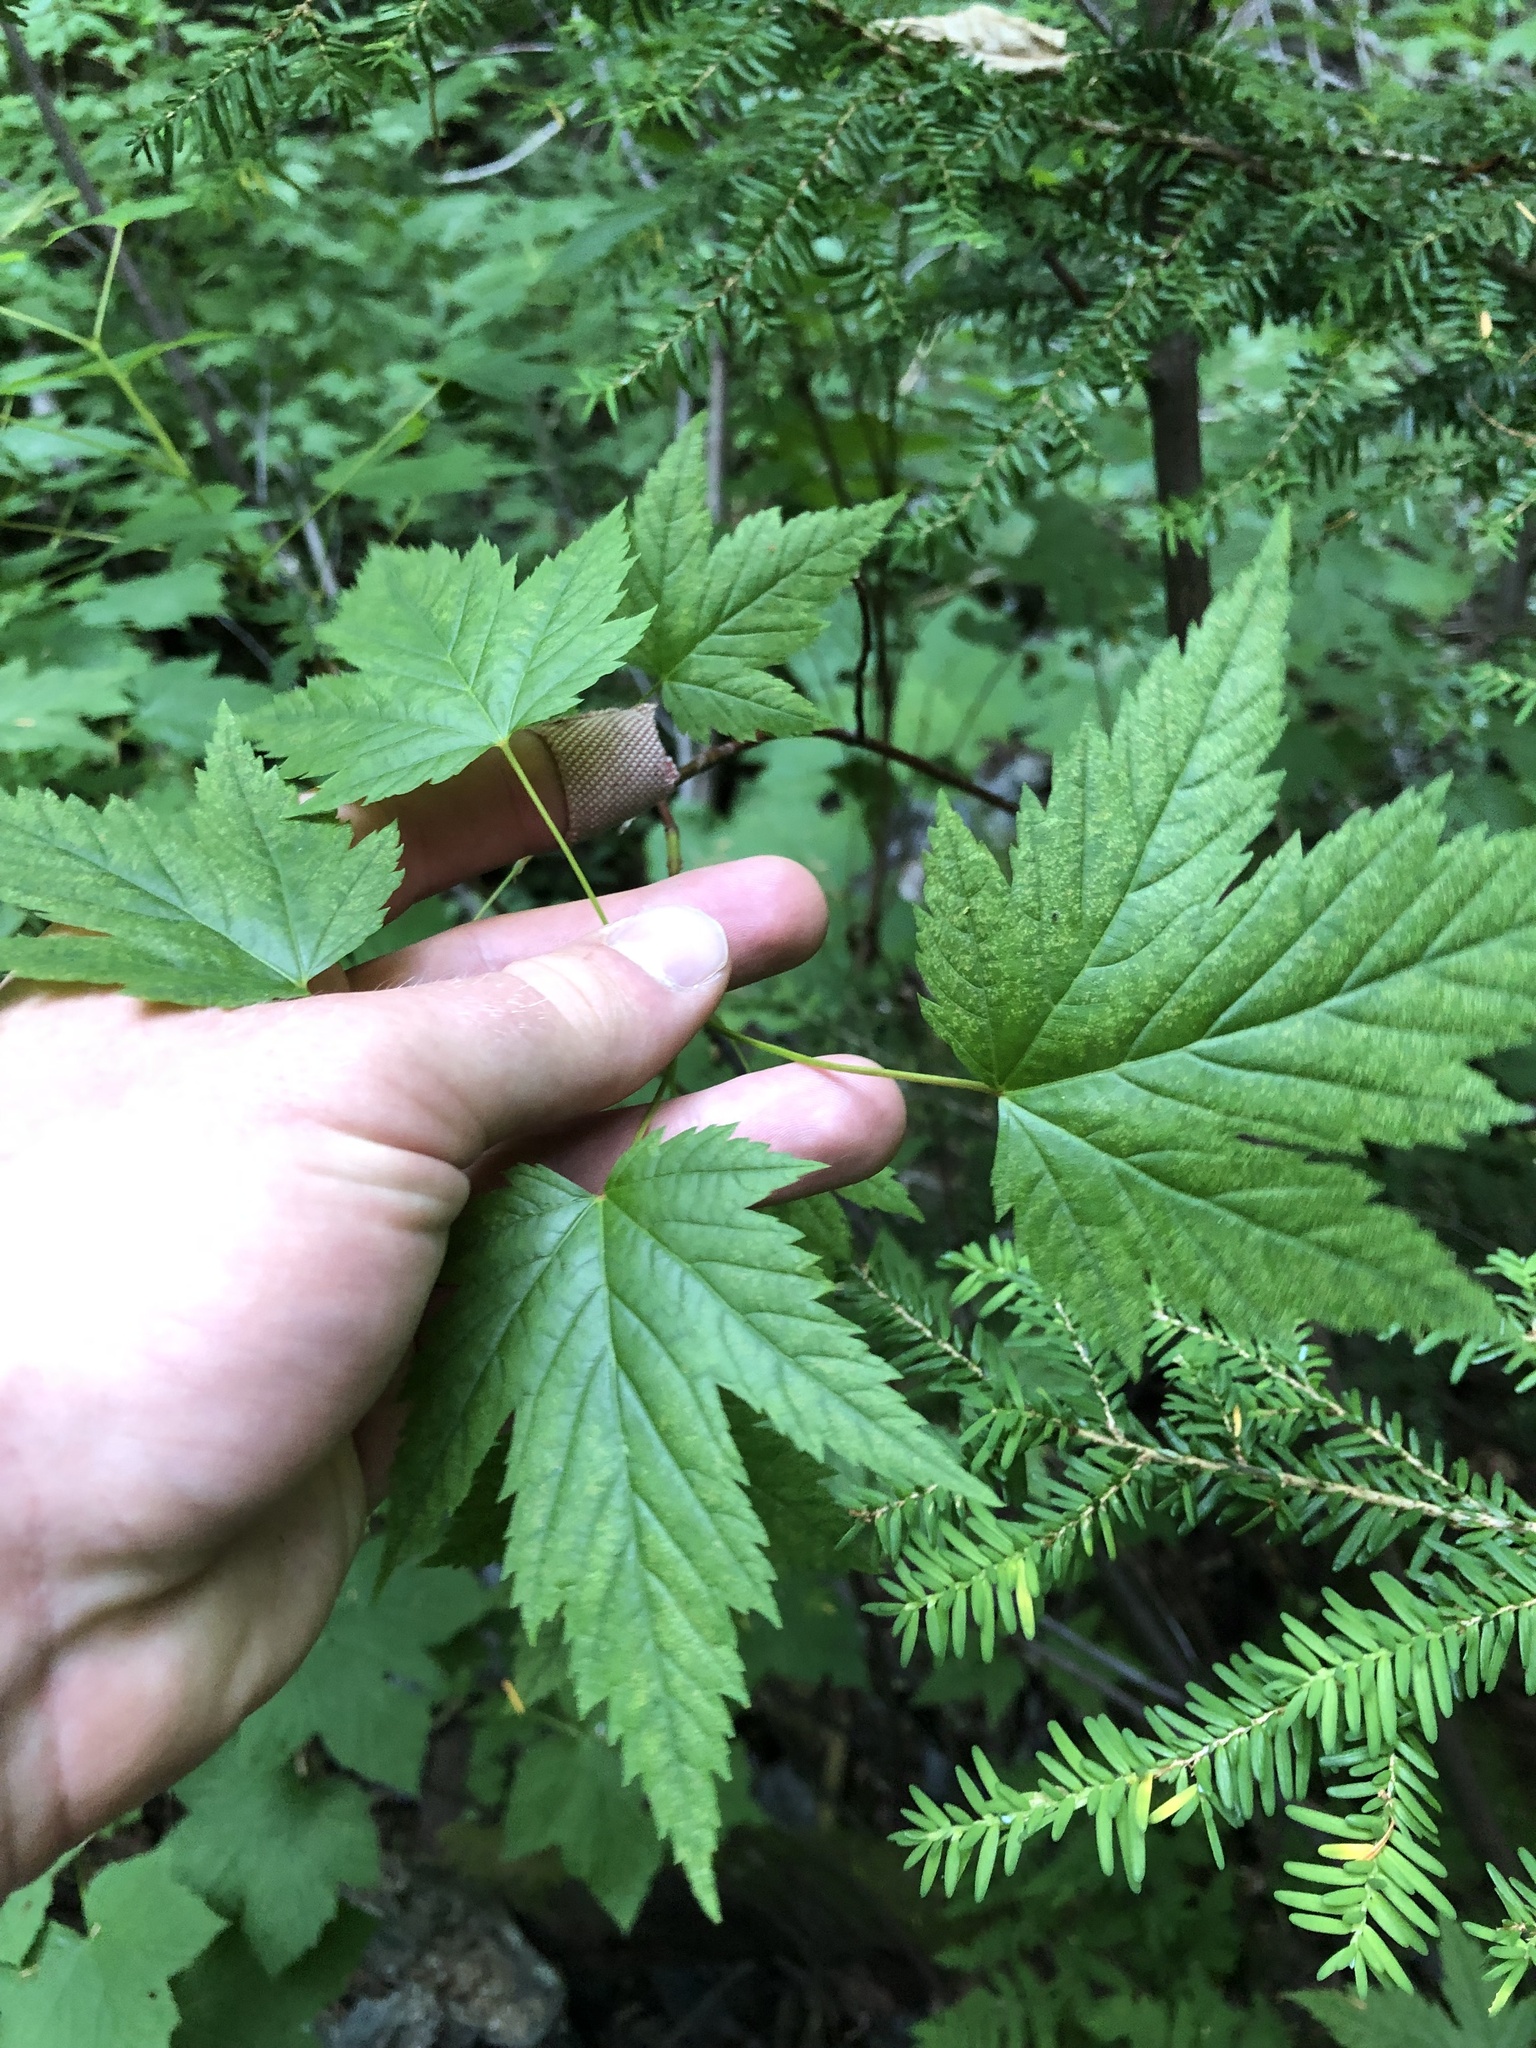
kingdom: Plantae
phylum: Tracheophyta
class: Magnoliopsida
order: Sapindales
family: Sapindaceae
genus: Acer
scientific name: Acer glabrum
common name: Rocky mountain maple
